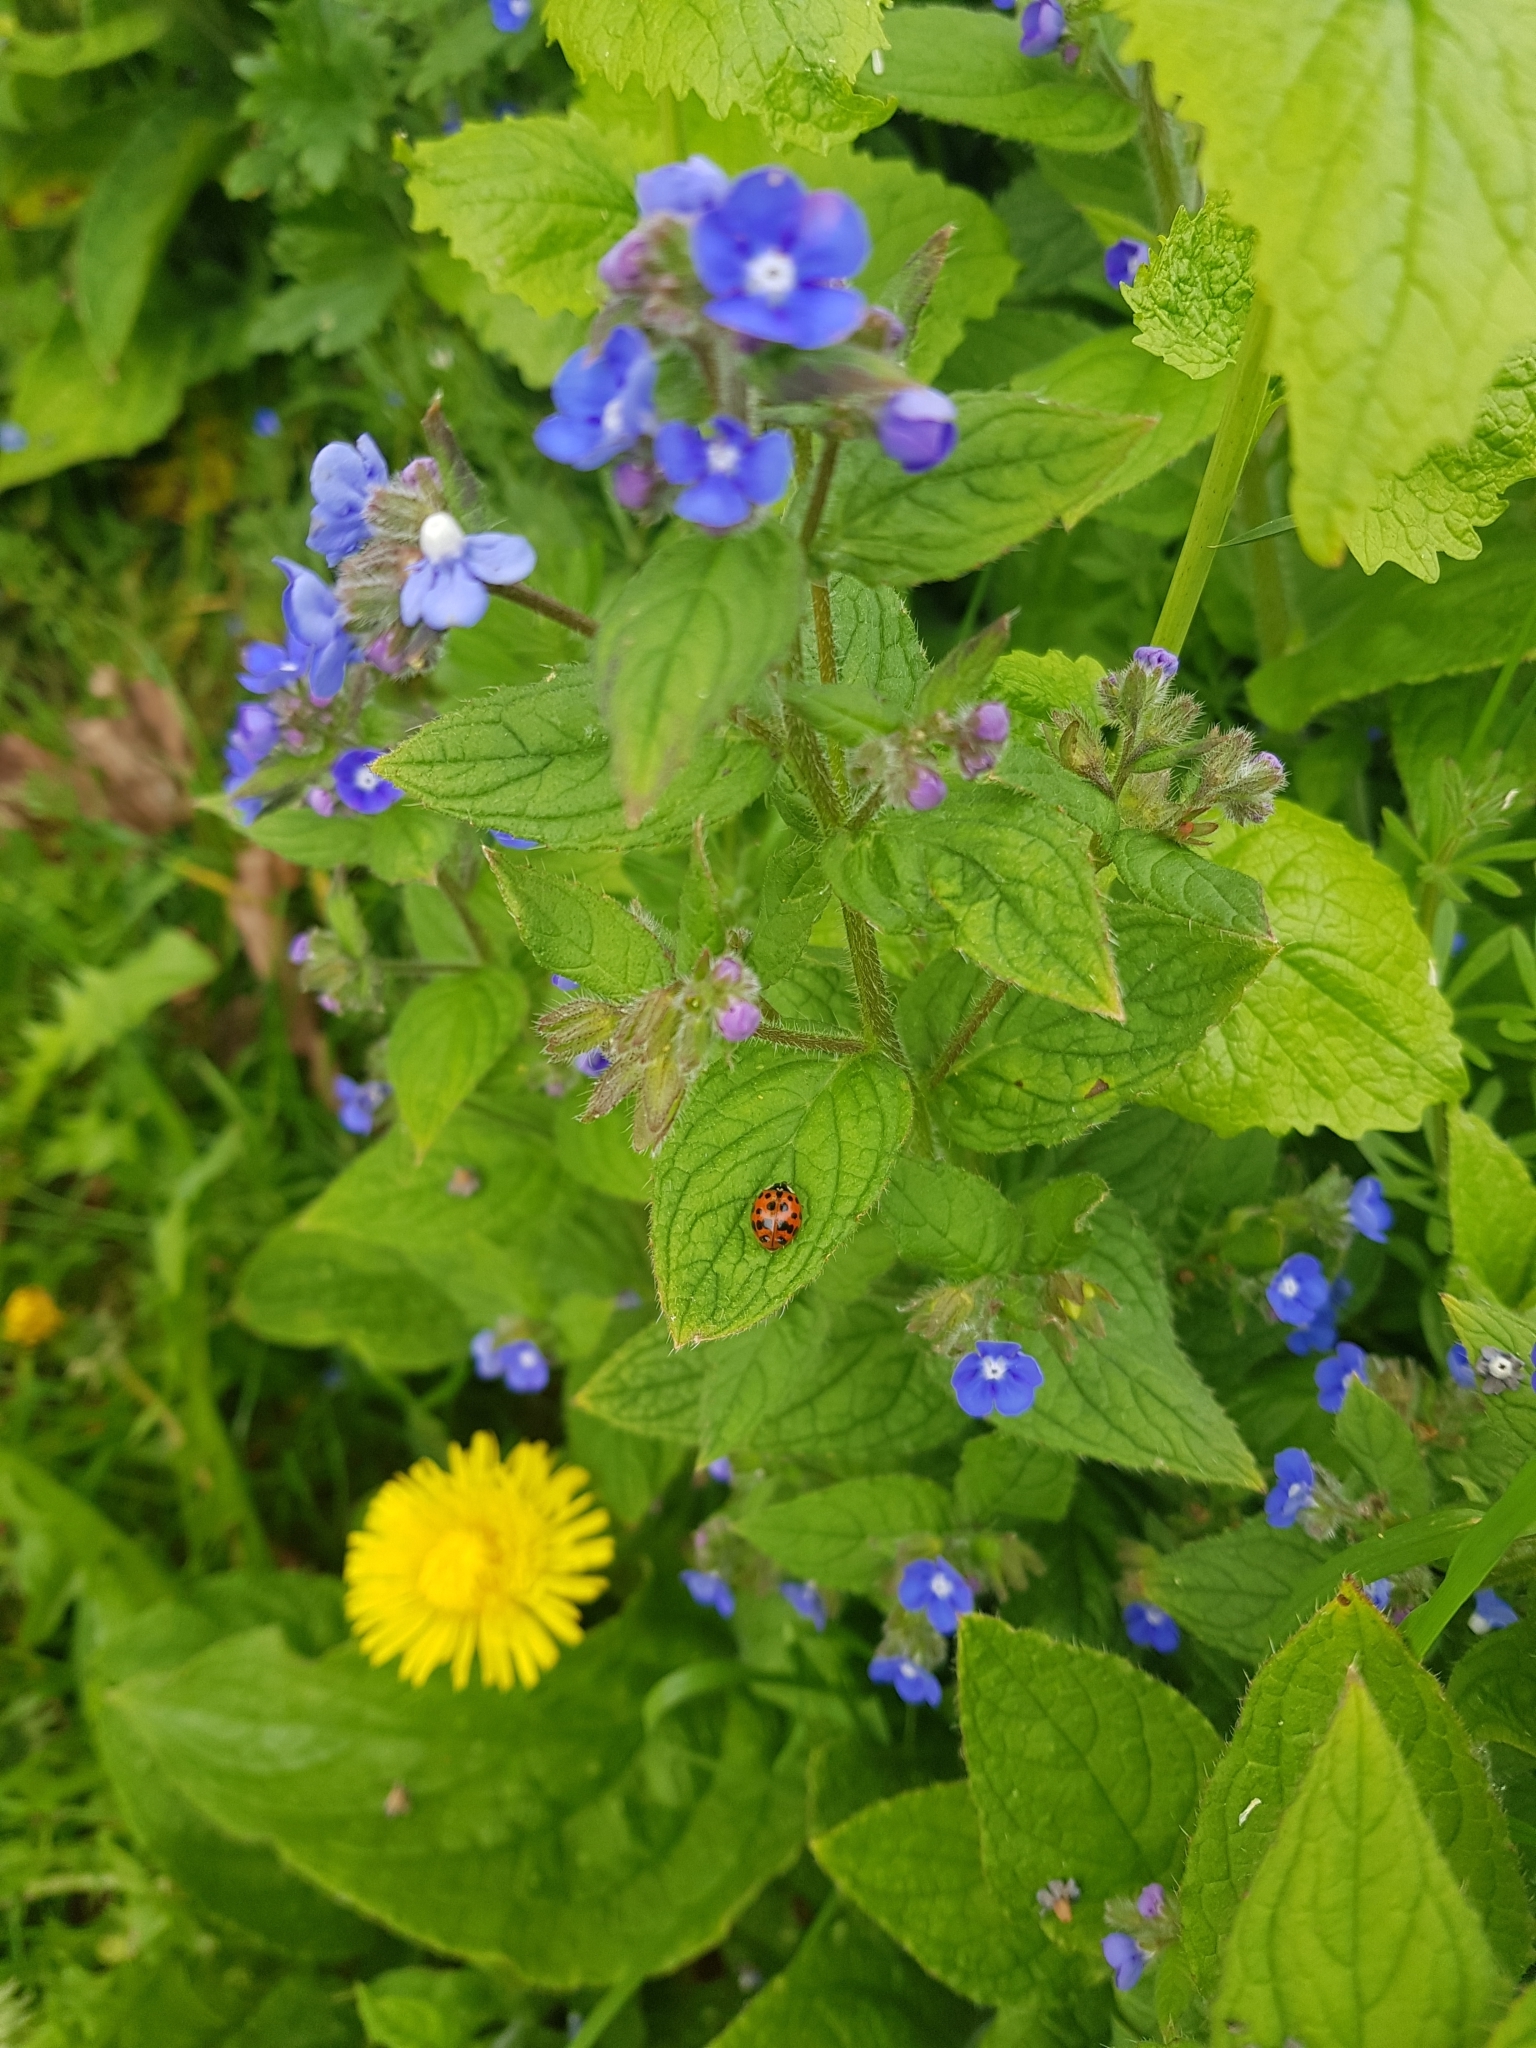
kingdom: Animalia
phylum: Arthropoda
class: Insecta
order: Coleoptera
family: Coccinellidae
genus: Harmonia
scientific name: Harmonia axyridis
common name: Harlequin ladybird
